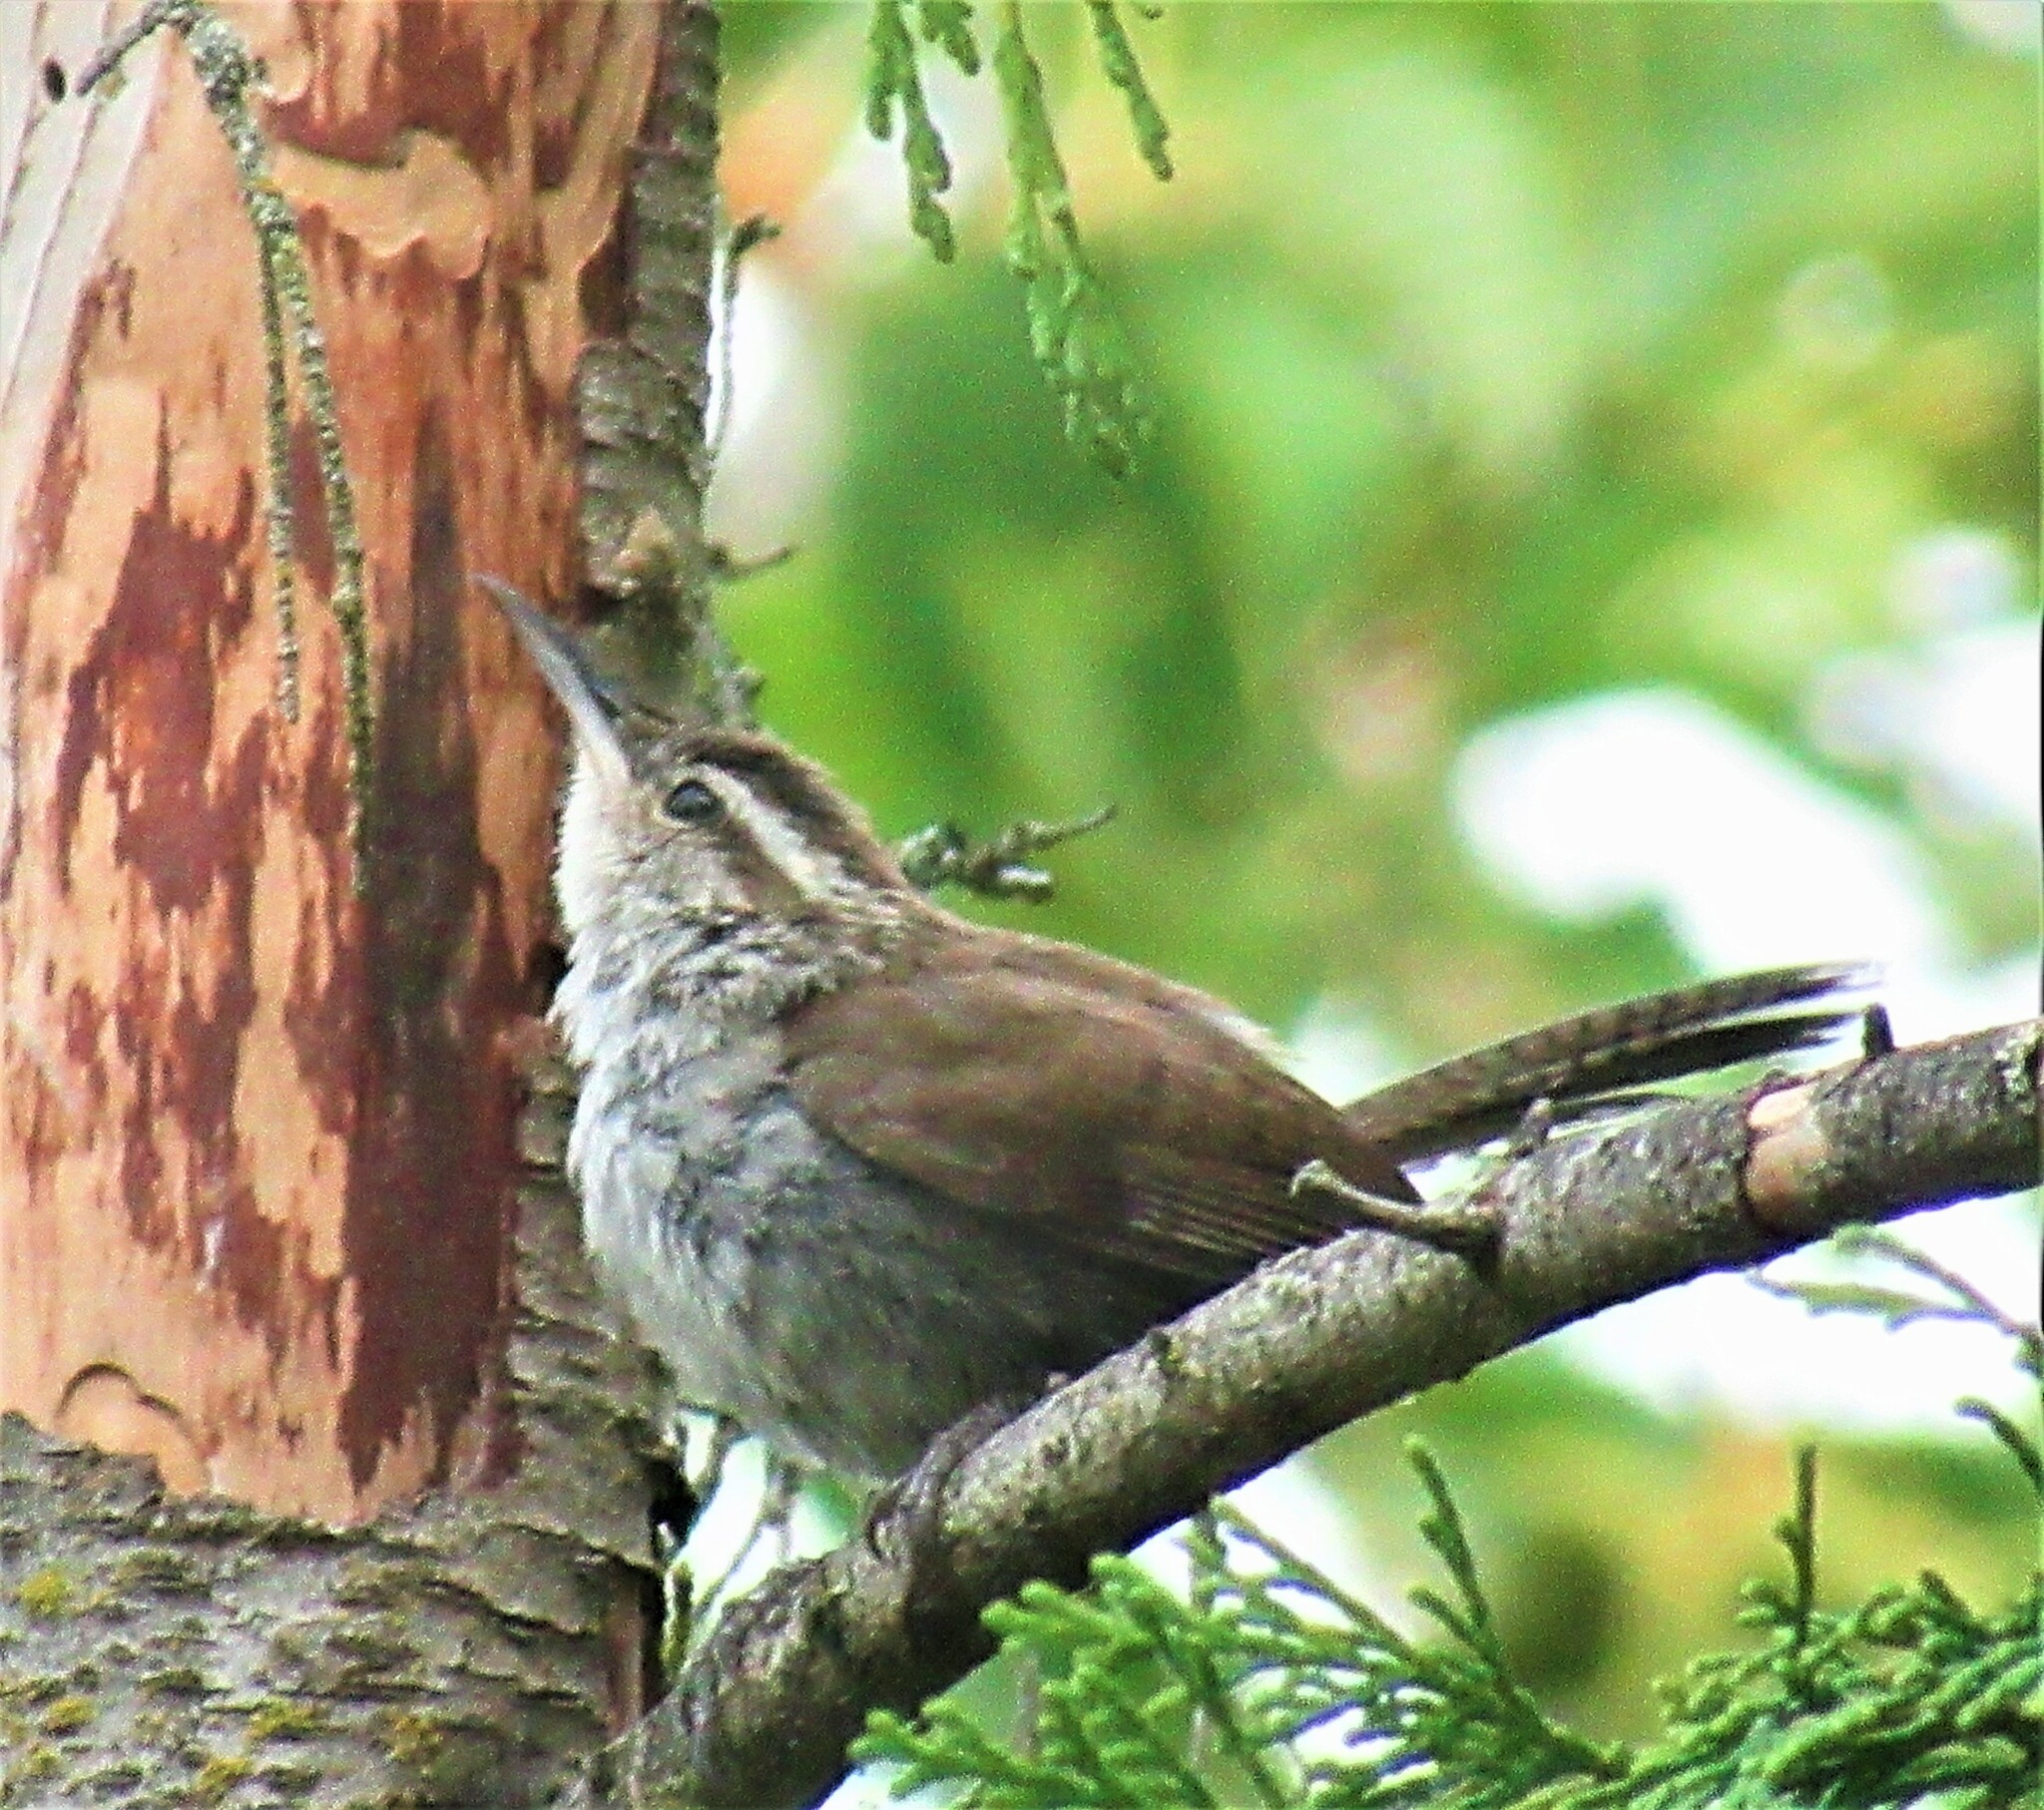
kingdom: Animalia
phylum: Chordata
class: Aves
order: Passeriformes
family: Troglodytidae
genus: Thryomanes
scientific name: Thryomanes bewickii
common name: Bewick's wren
